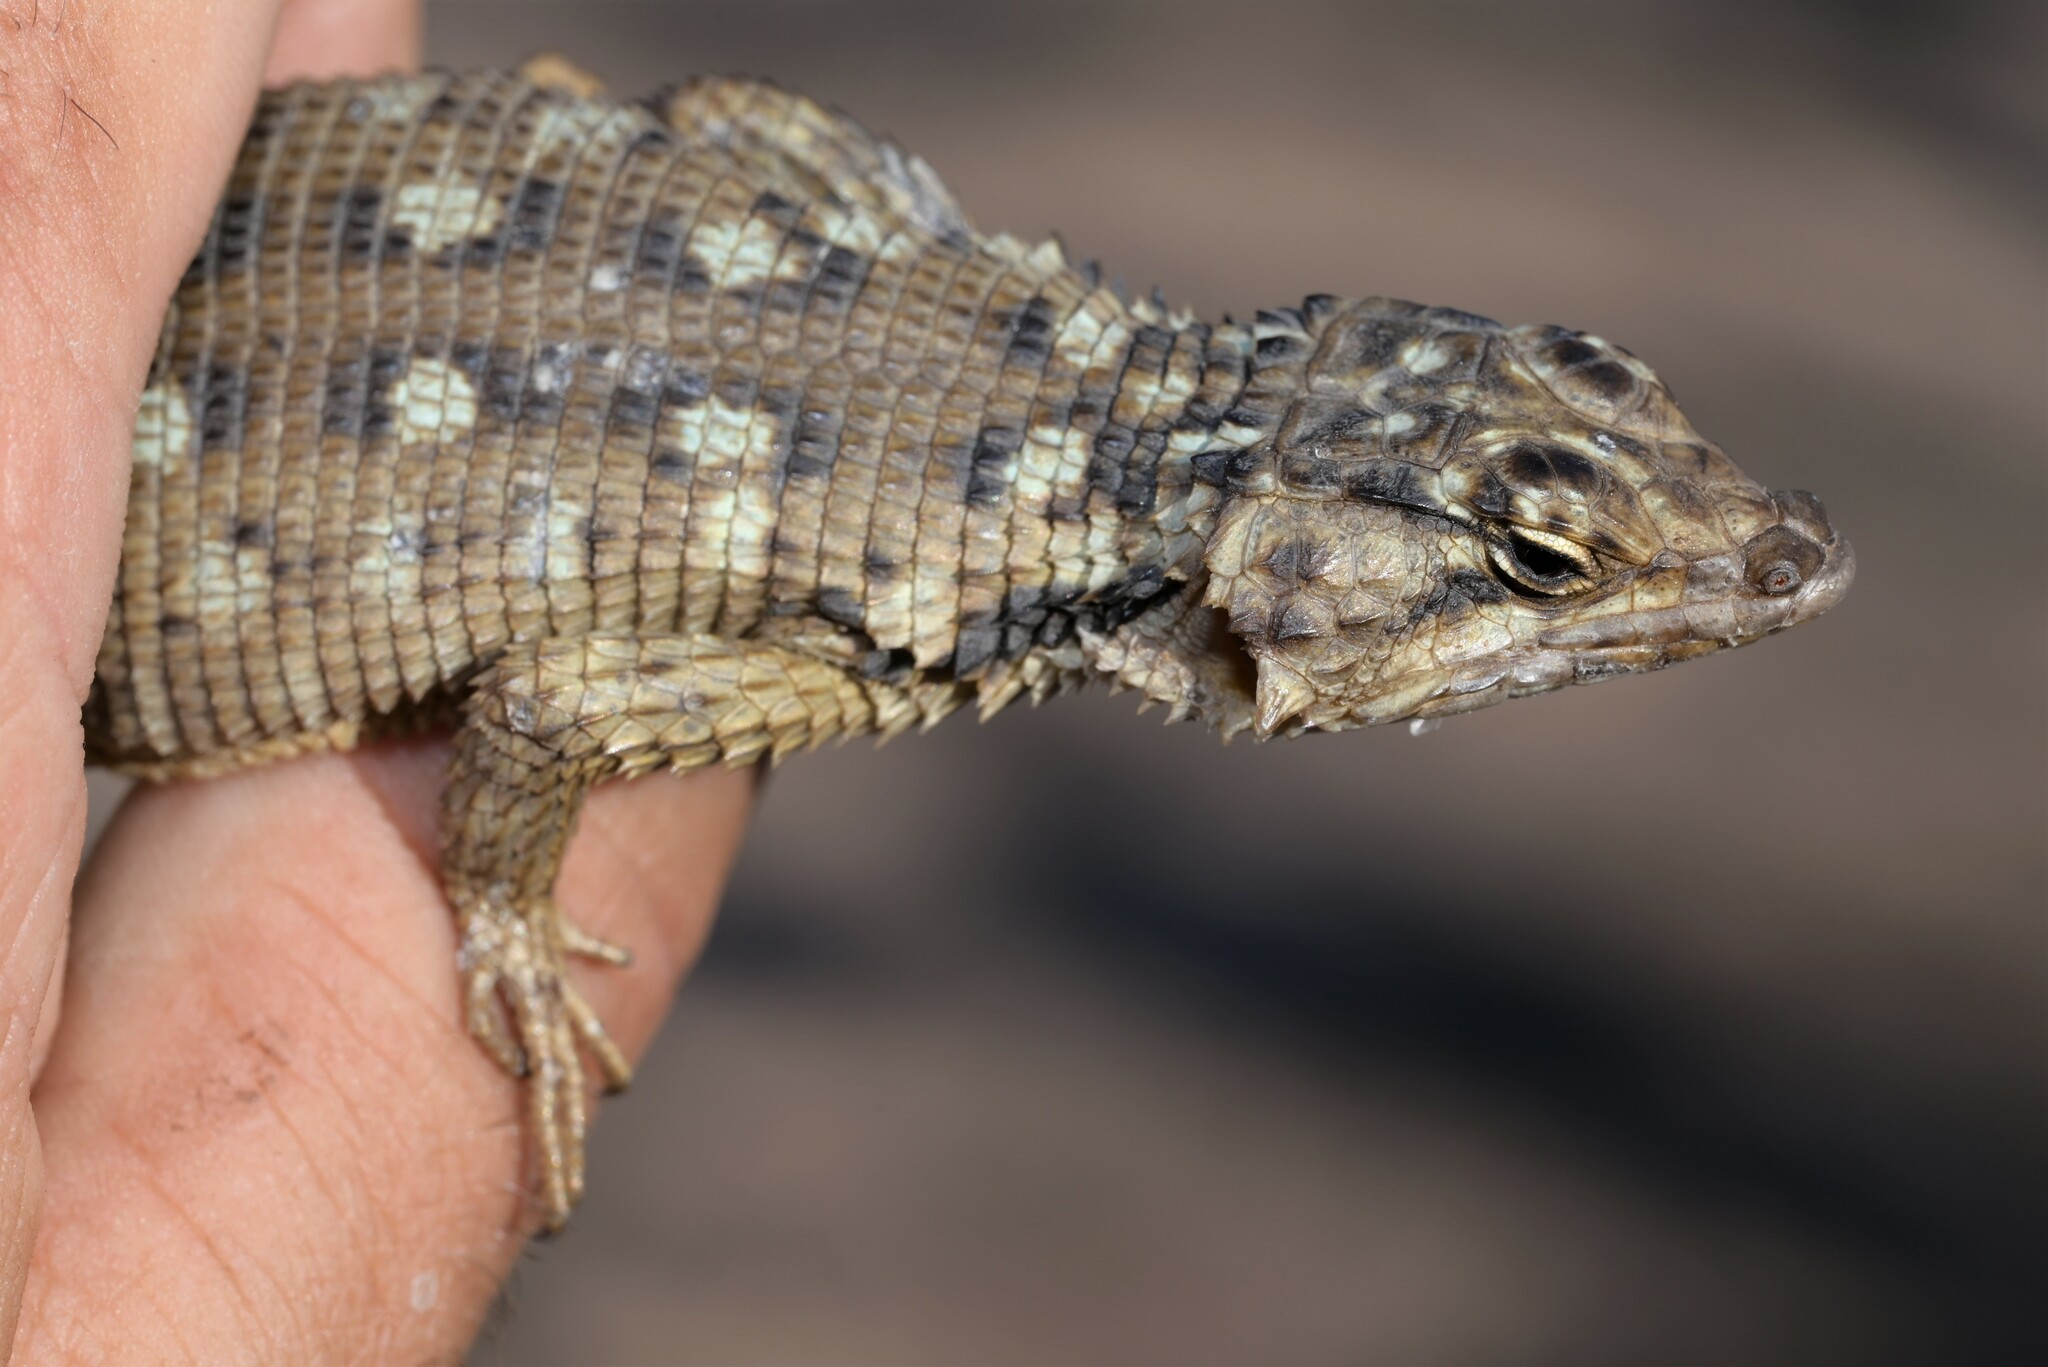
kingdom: Animalia
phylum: Chordata
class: Squamata
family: Cordylidae
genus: Karusasaurus
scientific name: Karusasaurus polyzonus
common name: Karoo girdled lizard
